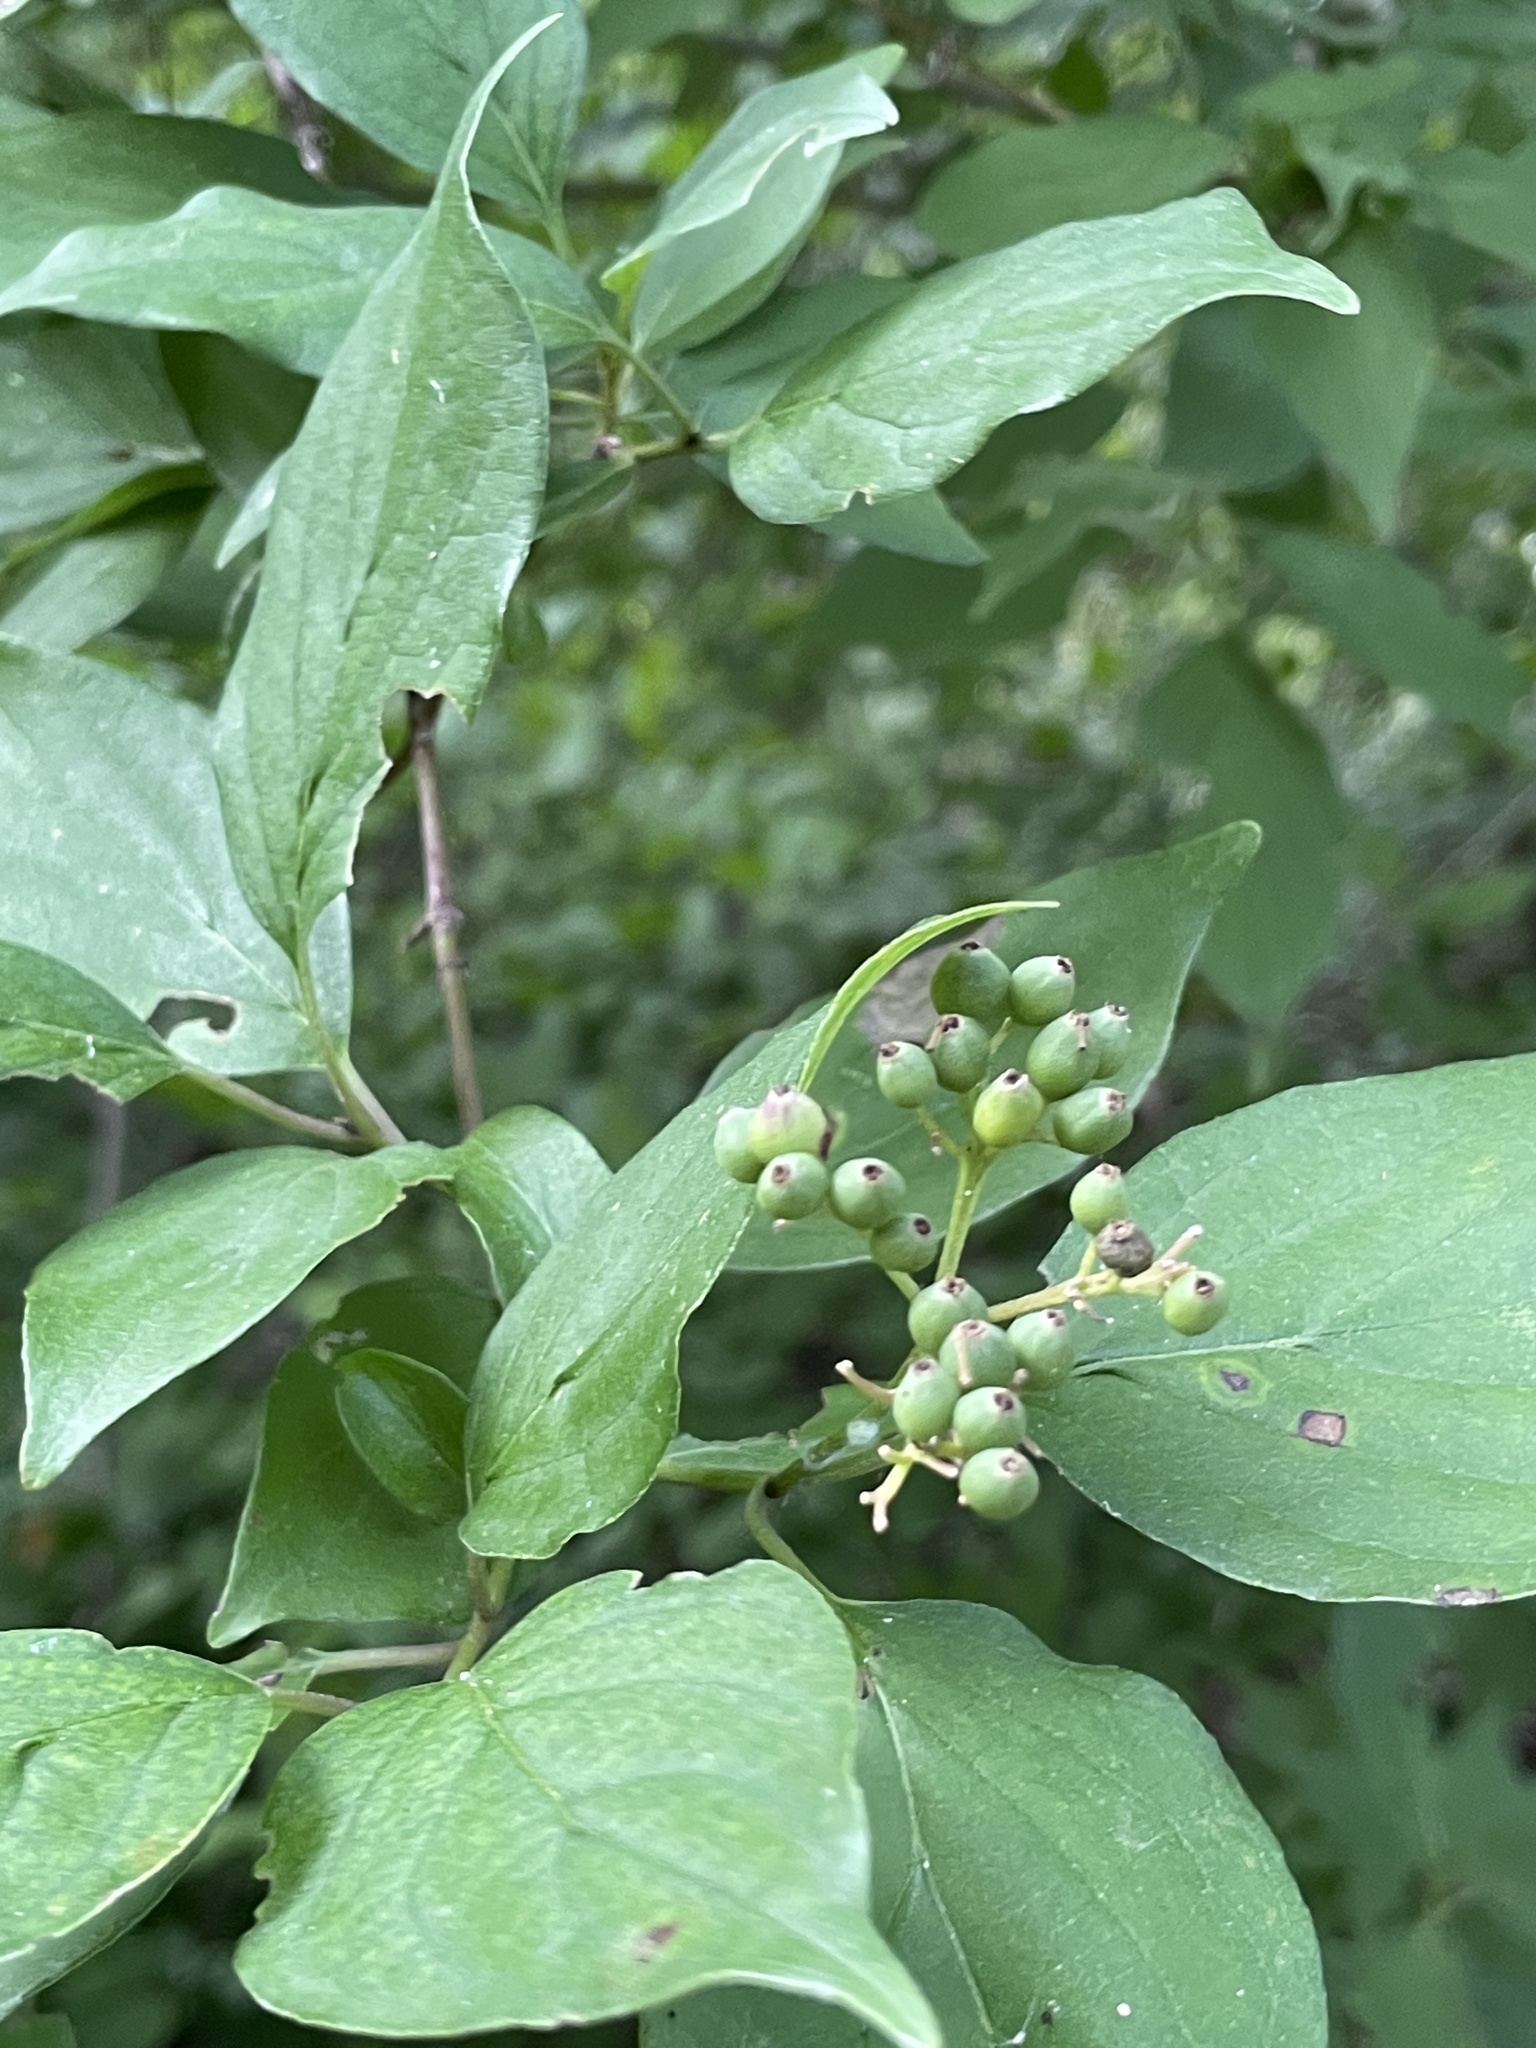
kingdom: Plantae
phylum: Tracheophyta
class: Magnoliopsida
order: Cornales
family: Cornaceae
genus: Cornus
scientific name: Cornus drummondii
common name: Rough-leaf dogwood
